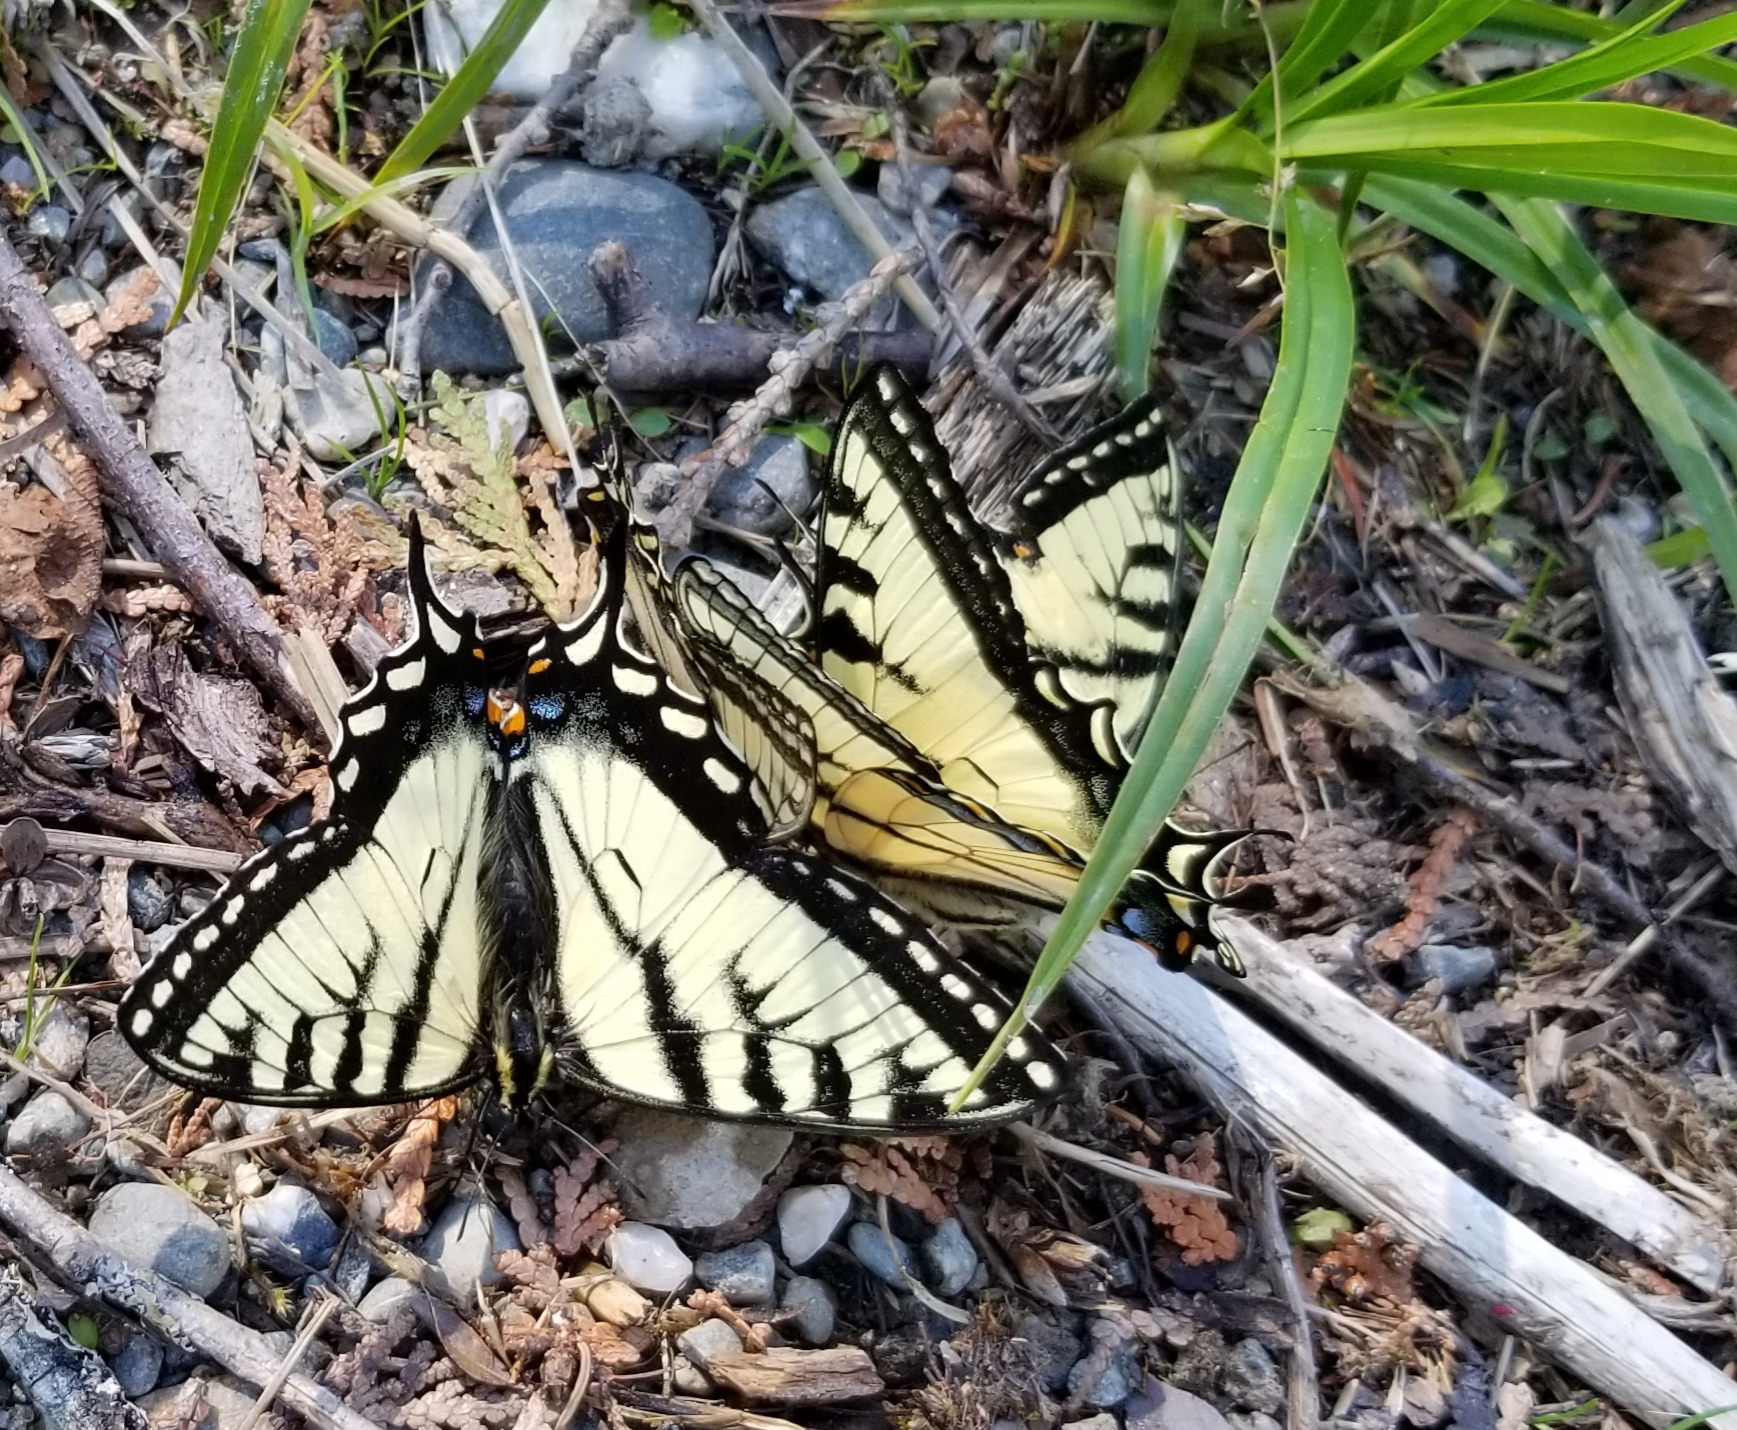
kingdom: Animalia
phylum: Arthropoda
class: Insecta
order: Lepidoptera
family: Papilionidae
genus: Papilio
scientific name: Papilio canadensis
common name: Canadian tiger swallowtail
